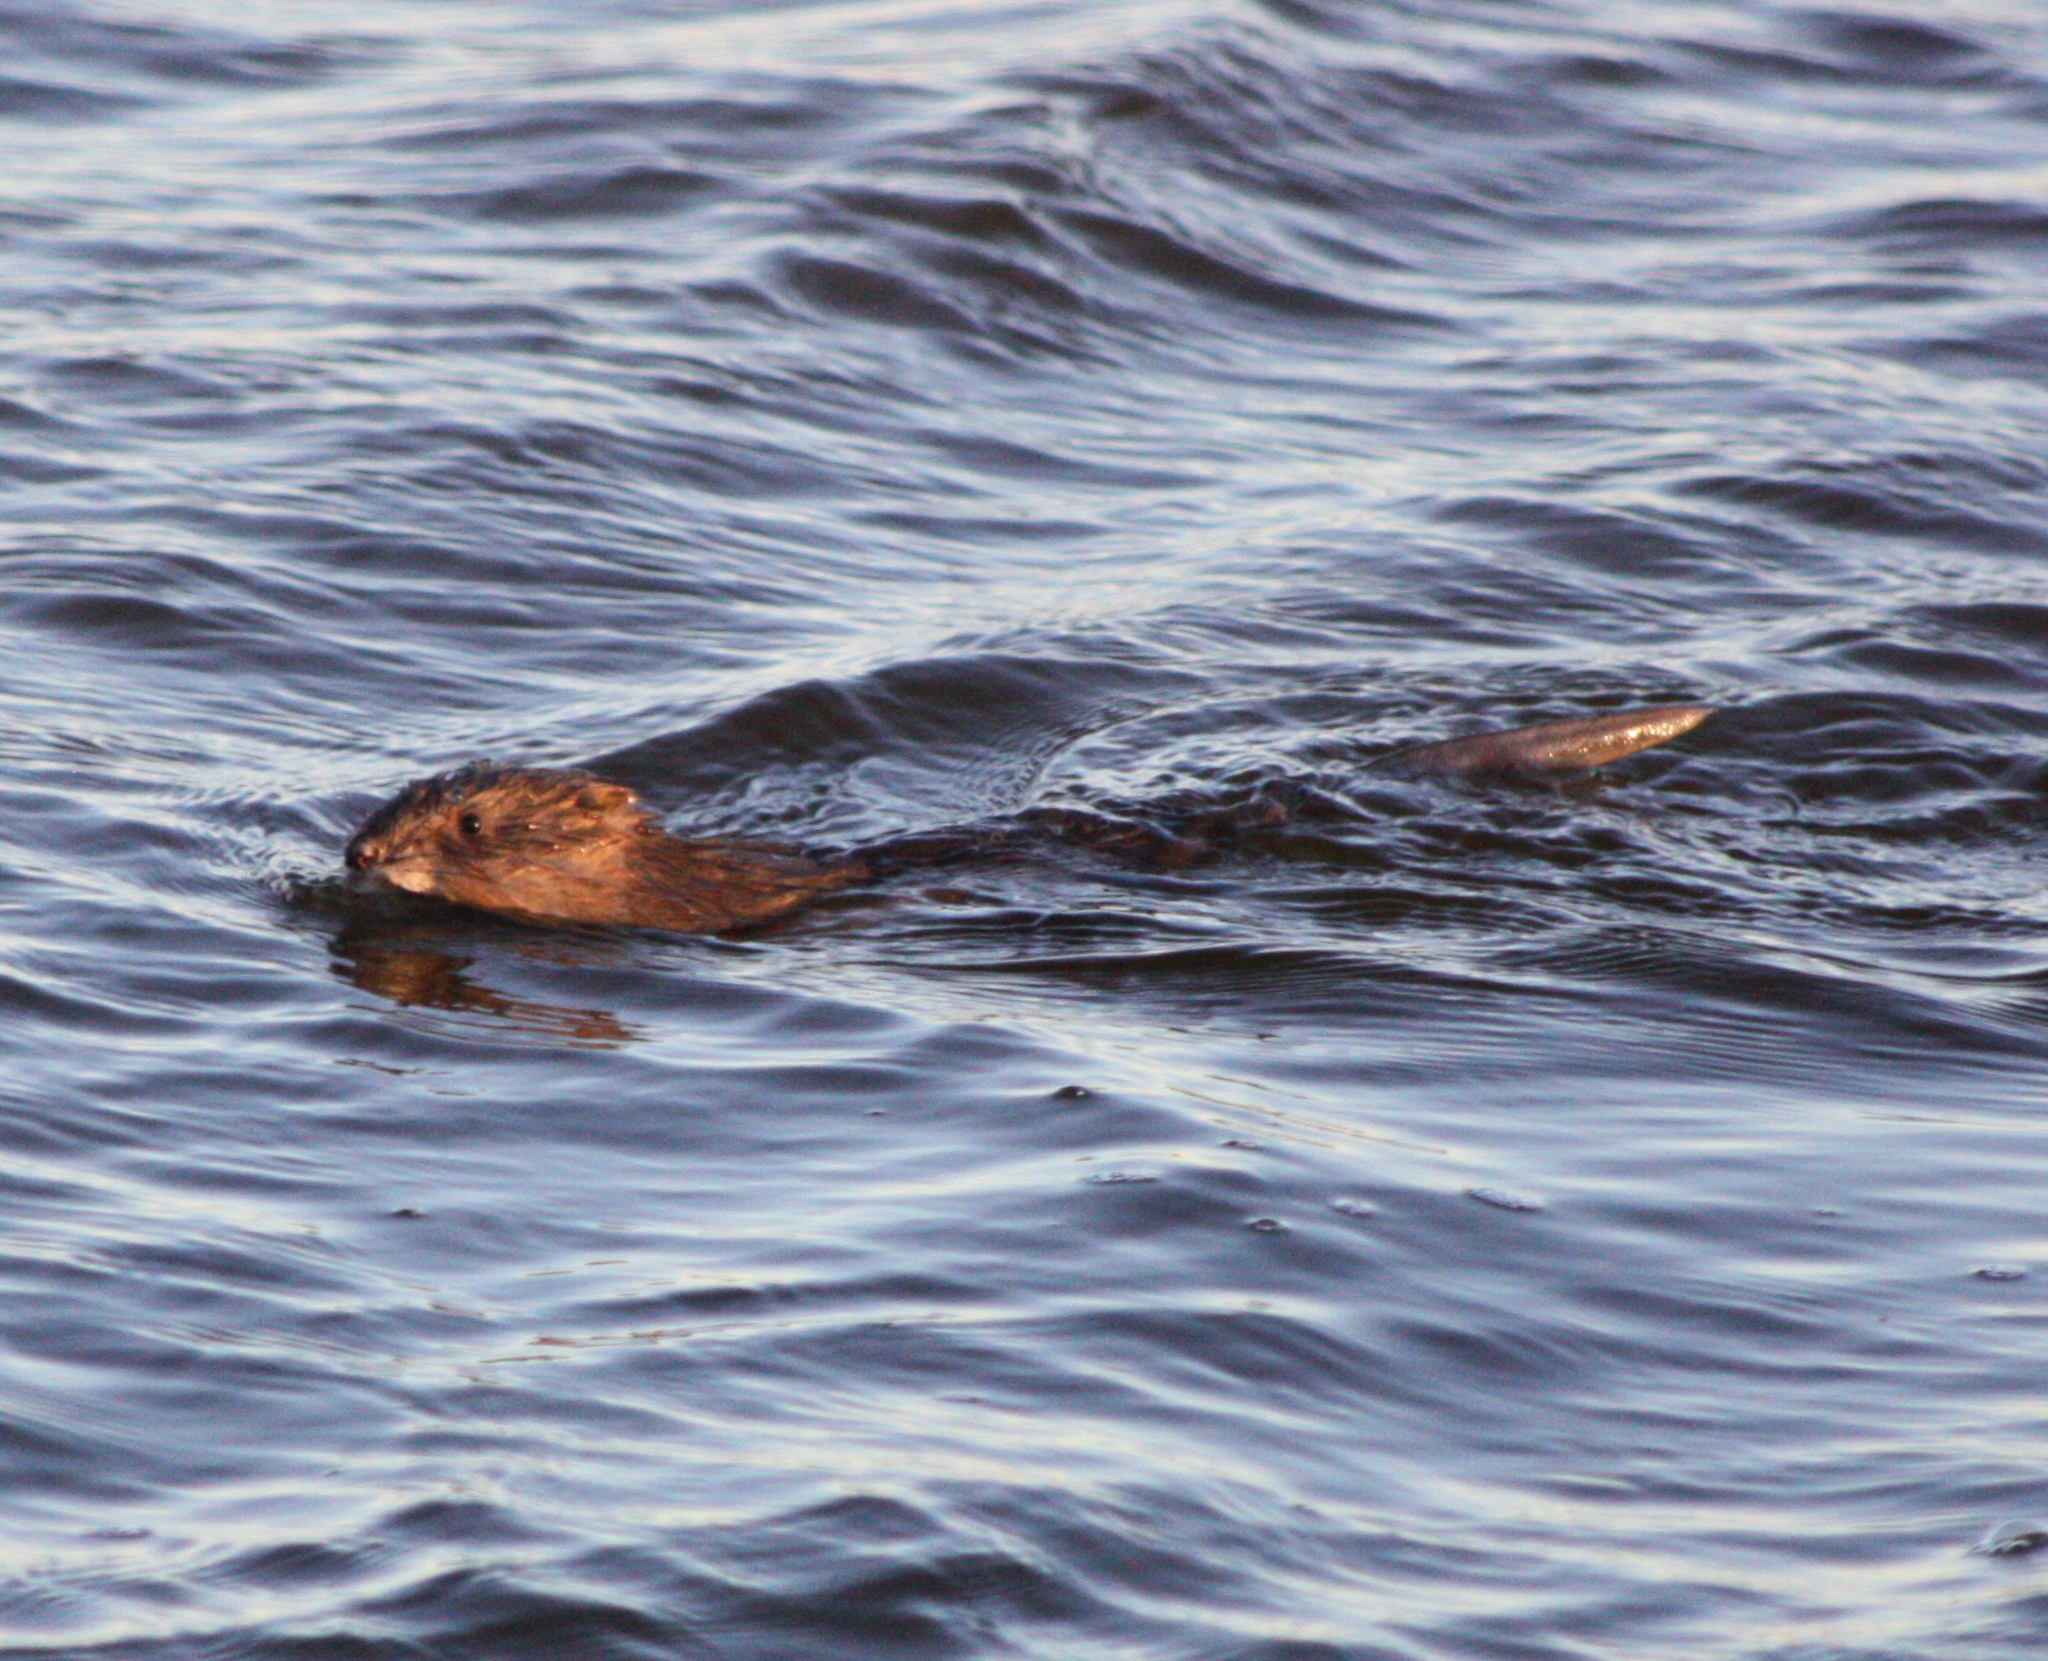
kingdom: Animalia
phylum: Chordata
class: Mammalia
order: Rodentia
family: Cricetidae
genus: Ondatra
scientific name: Ondatra zibethicus
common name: Muskrat
